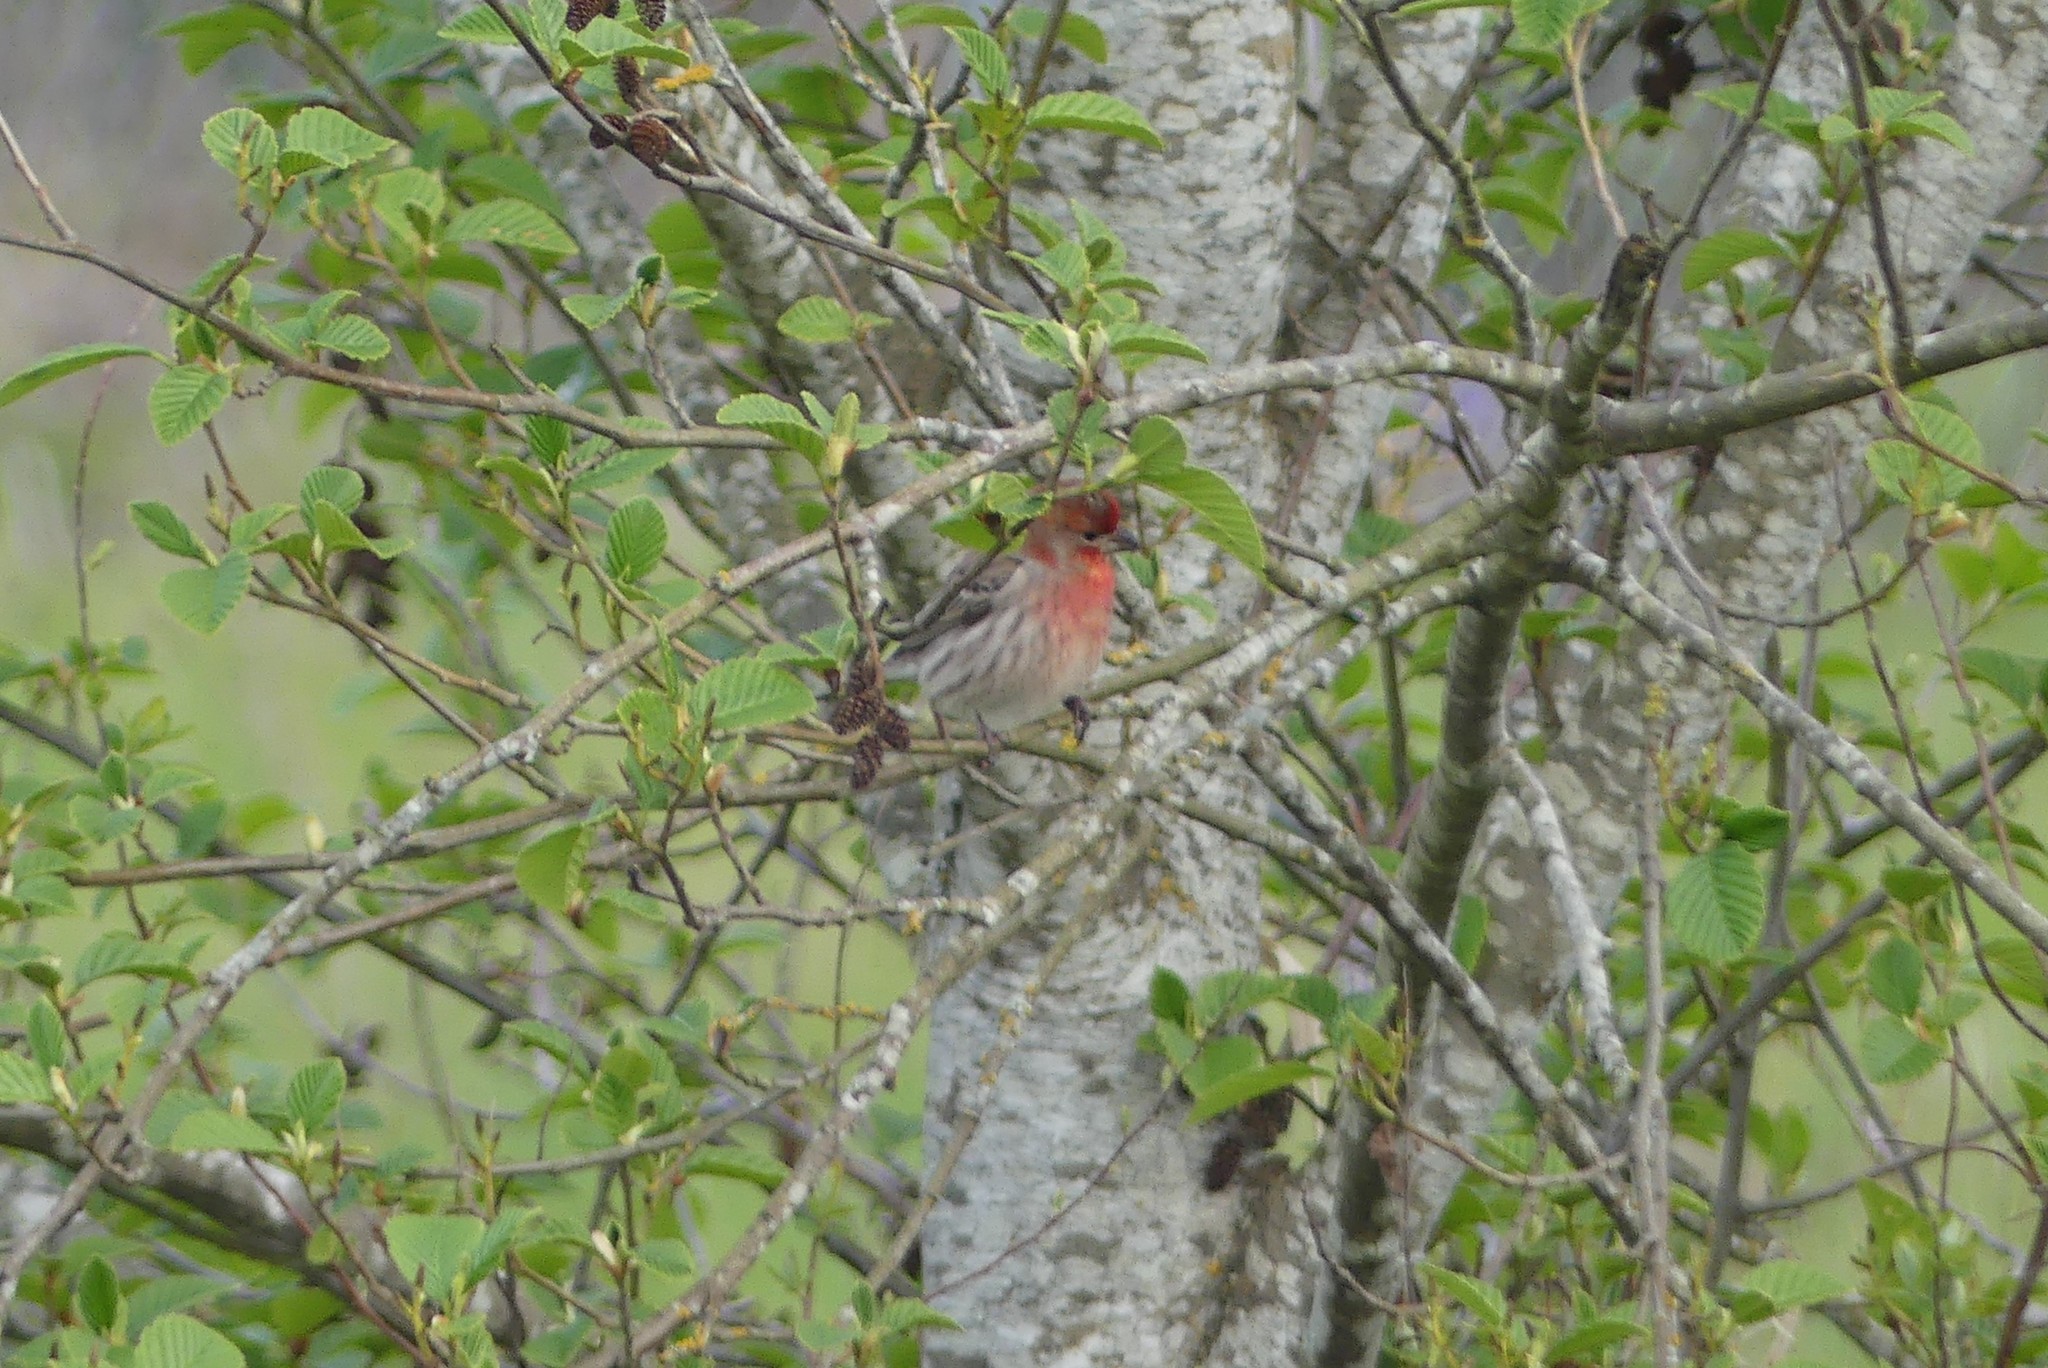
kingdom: Animalia
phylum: Chordata
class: Aves
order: Passeriformes
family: Fringillidae
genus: Haemorhous
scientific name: Haemorhous mexicanus
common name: House finch
